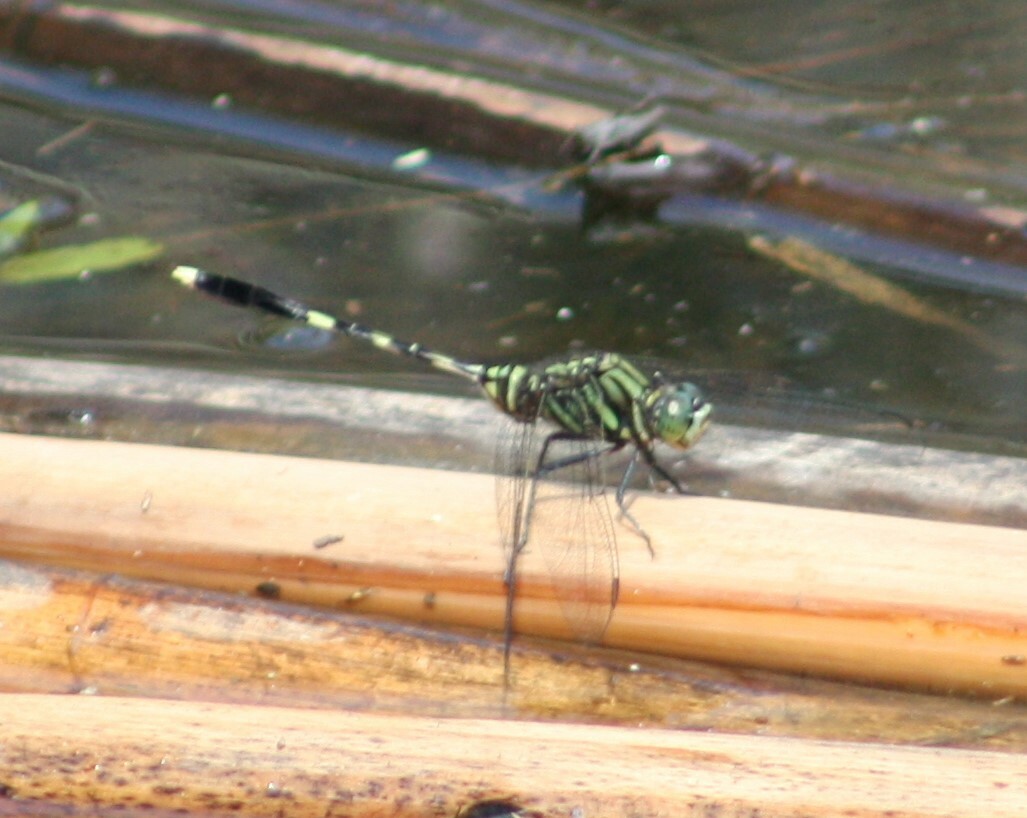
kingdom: Animalia
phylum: Arthropoda
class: Insecta
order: Odonata
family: Libellulidae
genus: Orthetrum
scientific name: Orthetrum serapia
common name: Green skimmer
